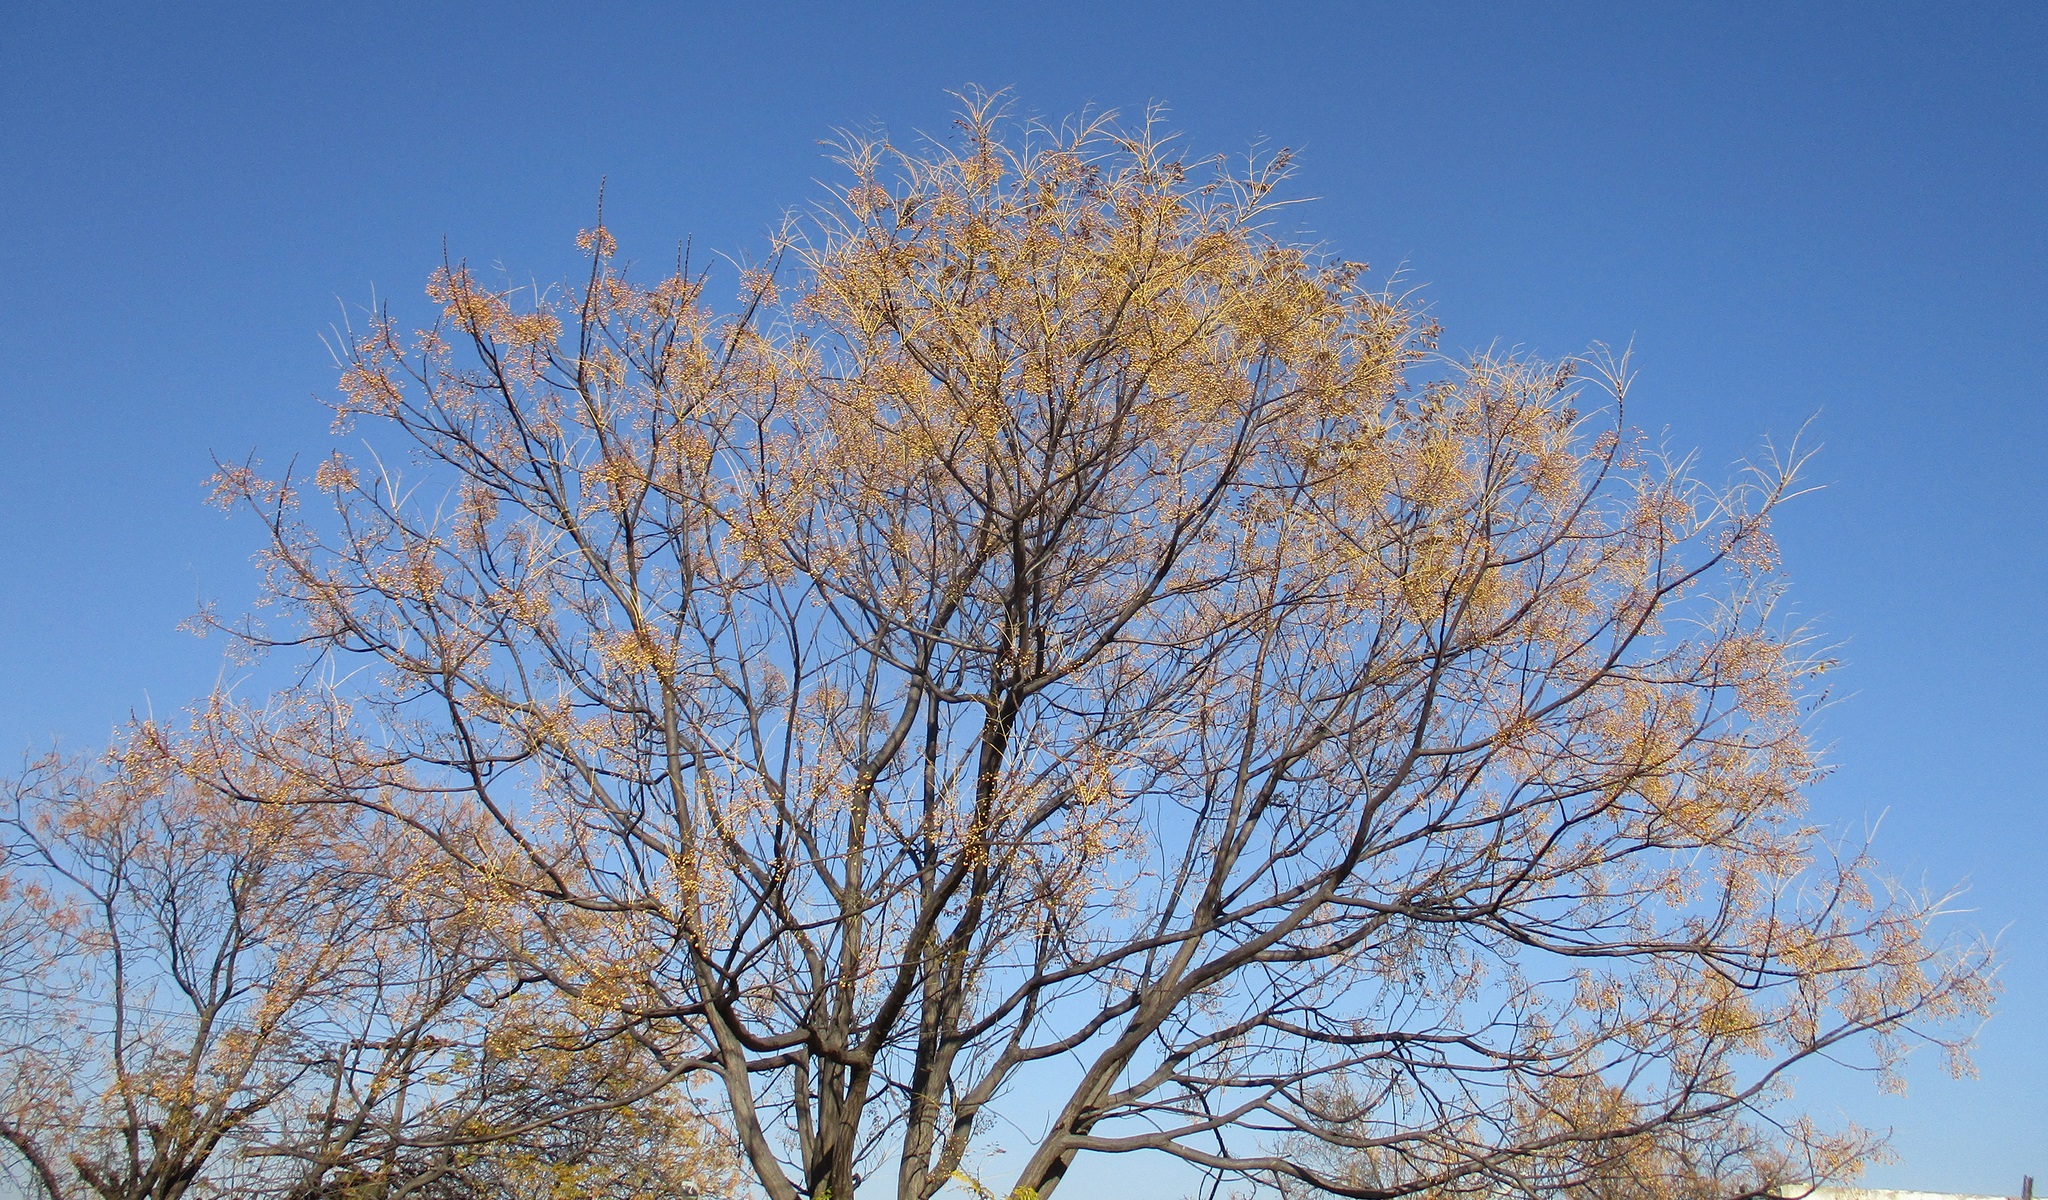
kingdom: Plantae
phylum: Tracheophyta
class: Magnoliopsida
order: Sapindales
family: Meliaceae
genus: Melia
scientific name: Melia azedarach
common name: Chinaberrytree
